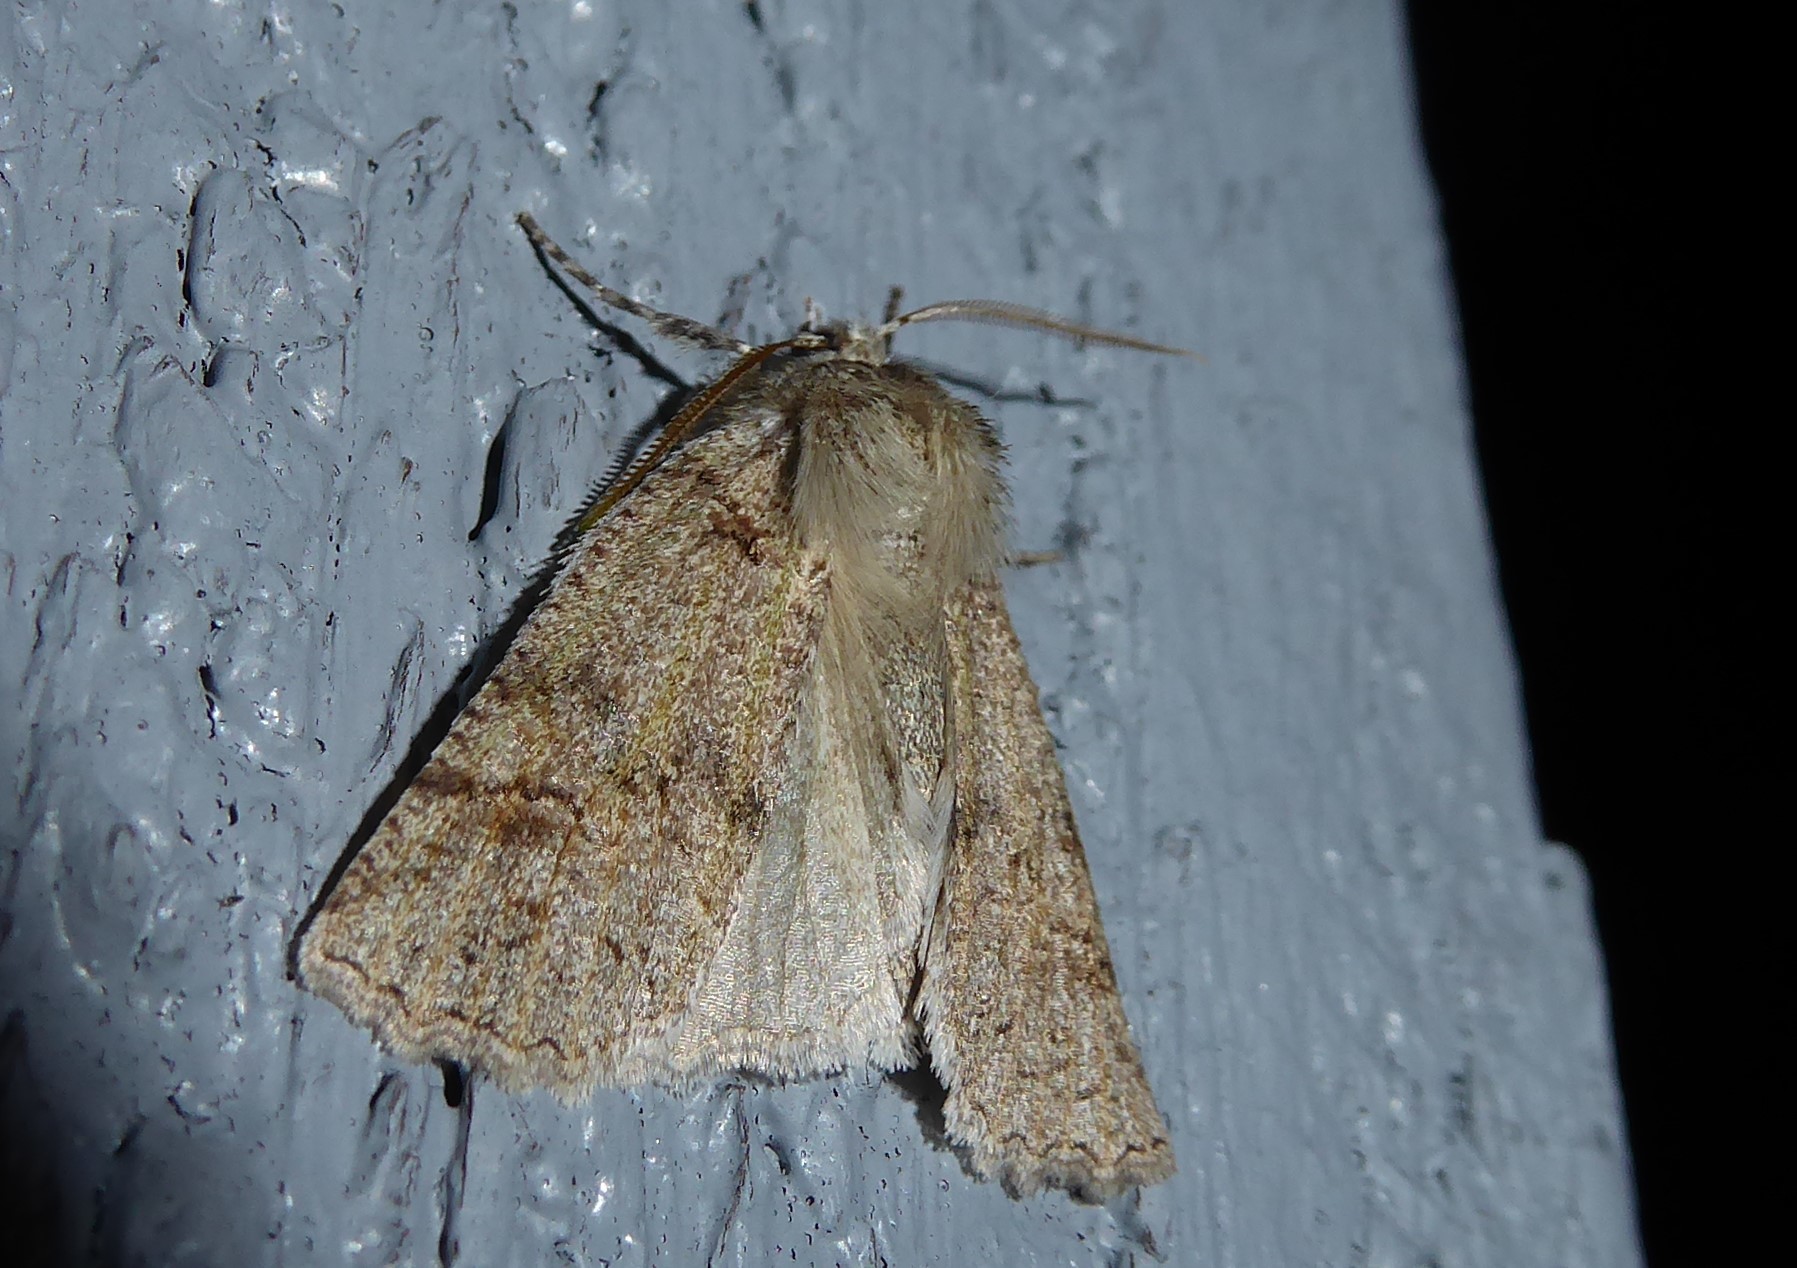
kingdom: Animalia
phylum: Arthropoda
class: Insecta
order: Lepidoptera
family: Geometridae
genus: Declana
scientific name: Declana floccosa
